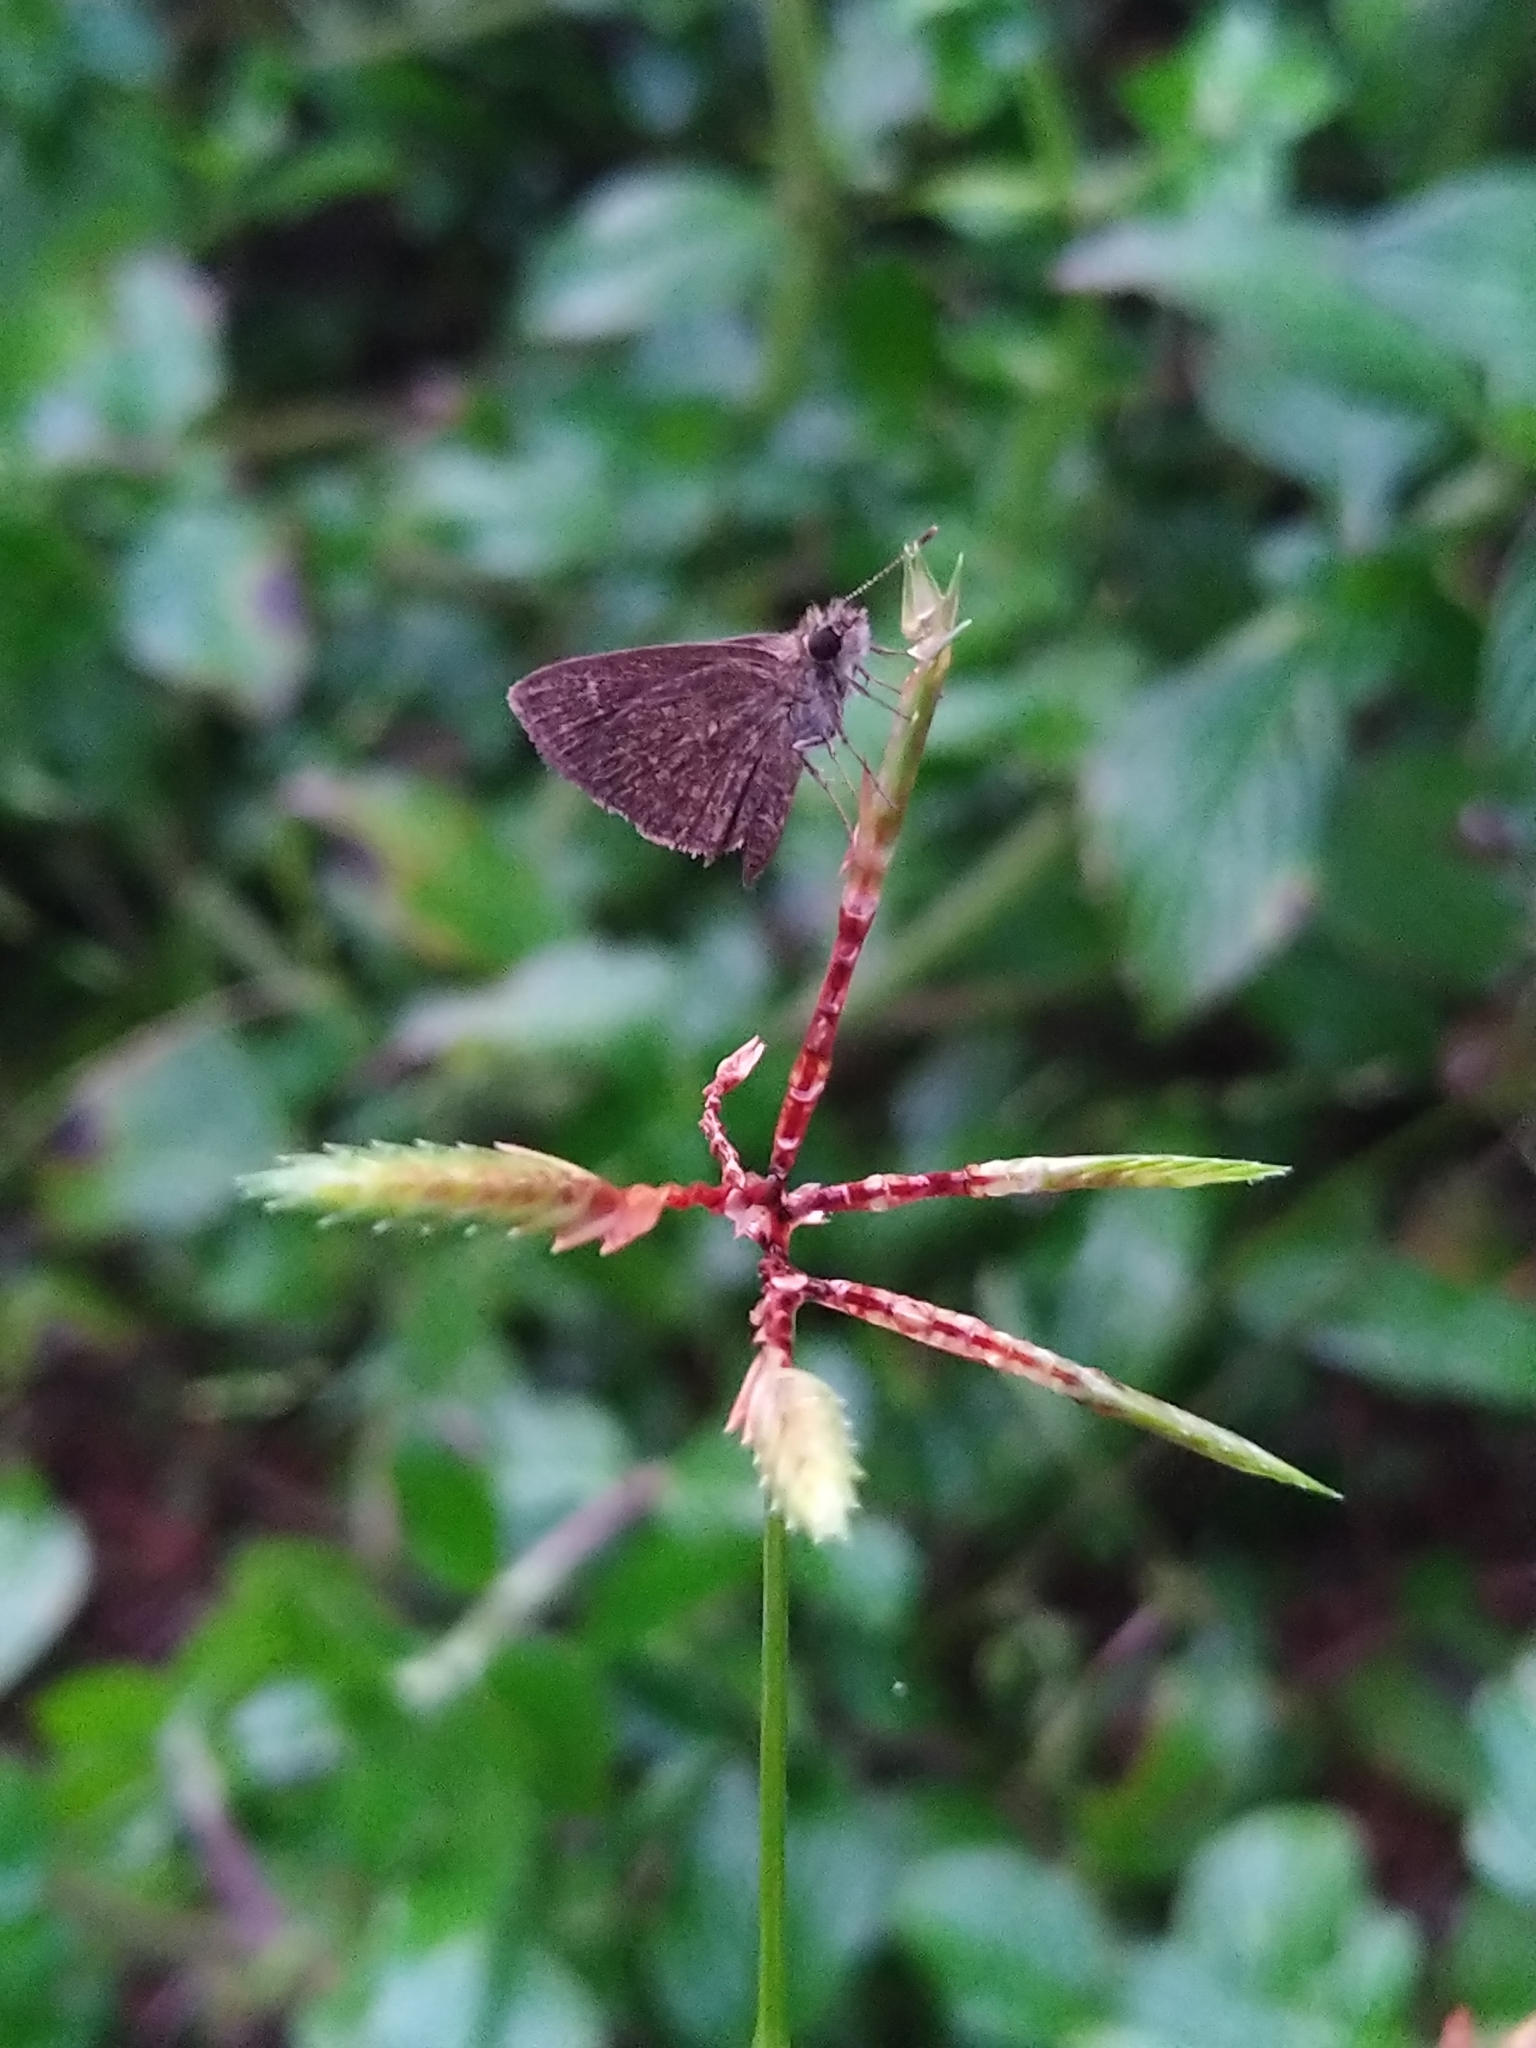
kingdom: Animalia
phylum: Arthropoda
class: Insecta
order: Lepidoptera
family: Hesperiidae
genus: Aeromachus
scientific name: Aeromachus pygmaeus
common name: Pygmy scrub hopper
